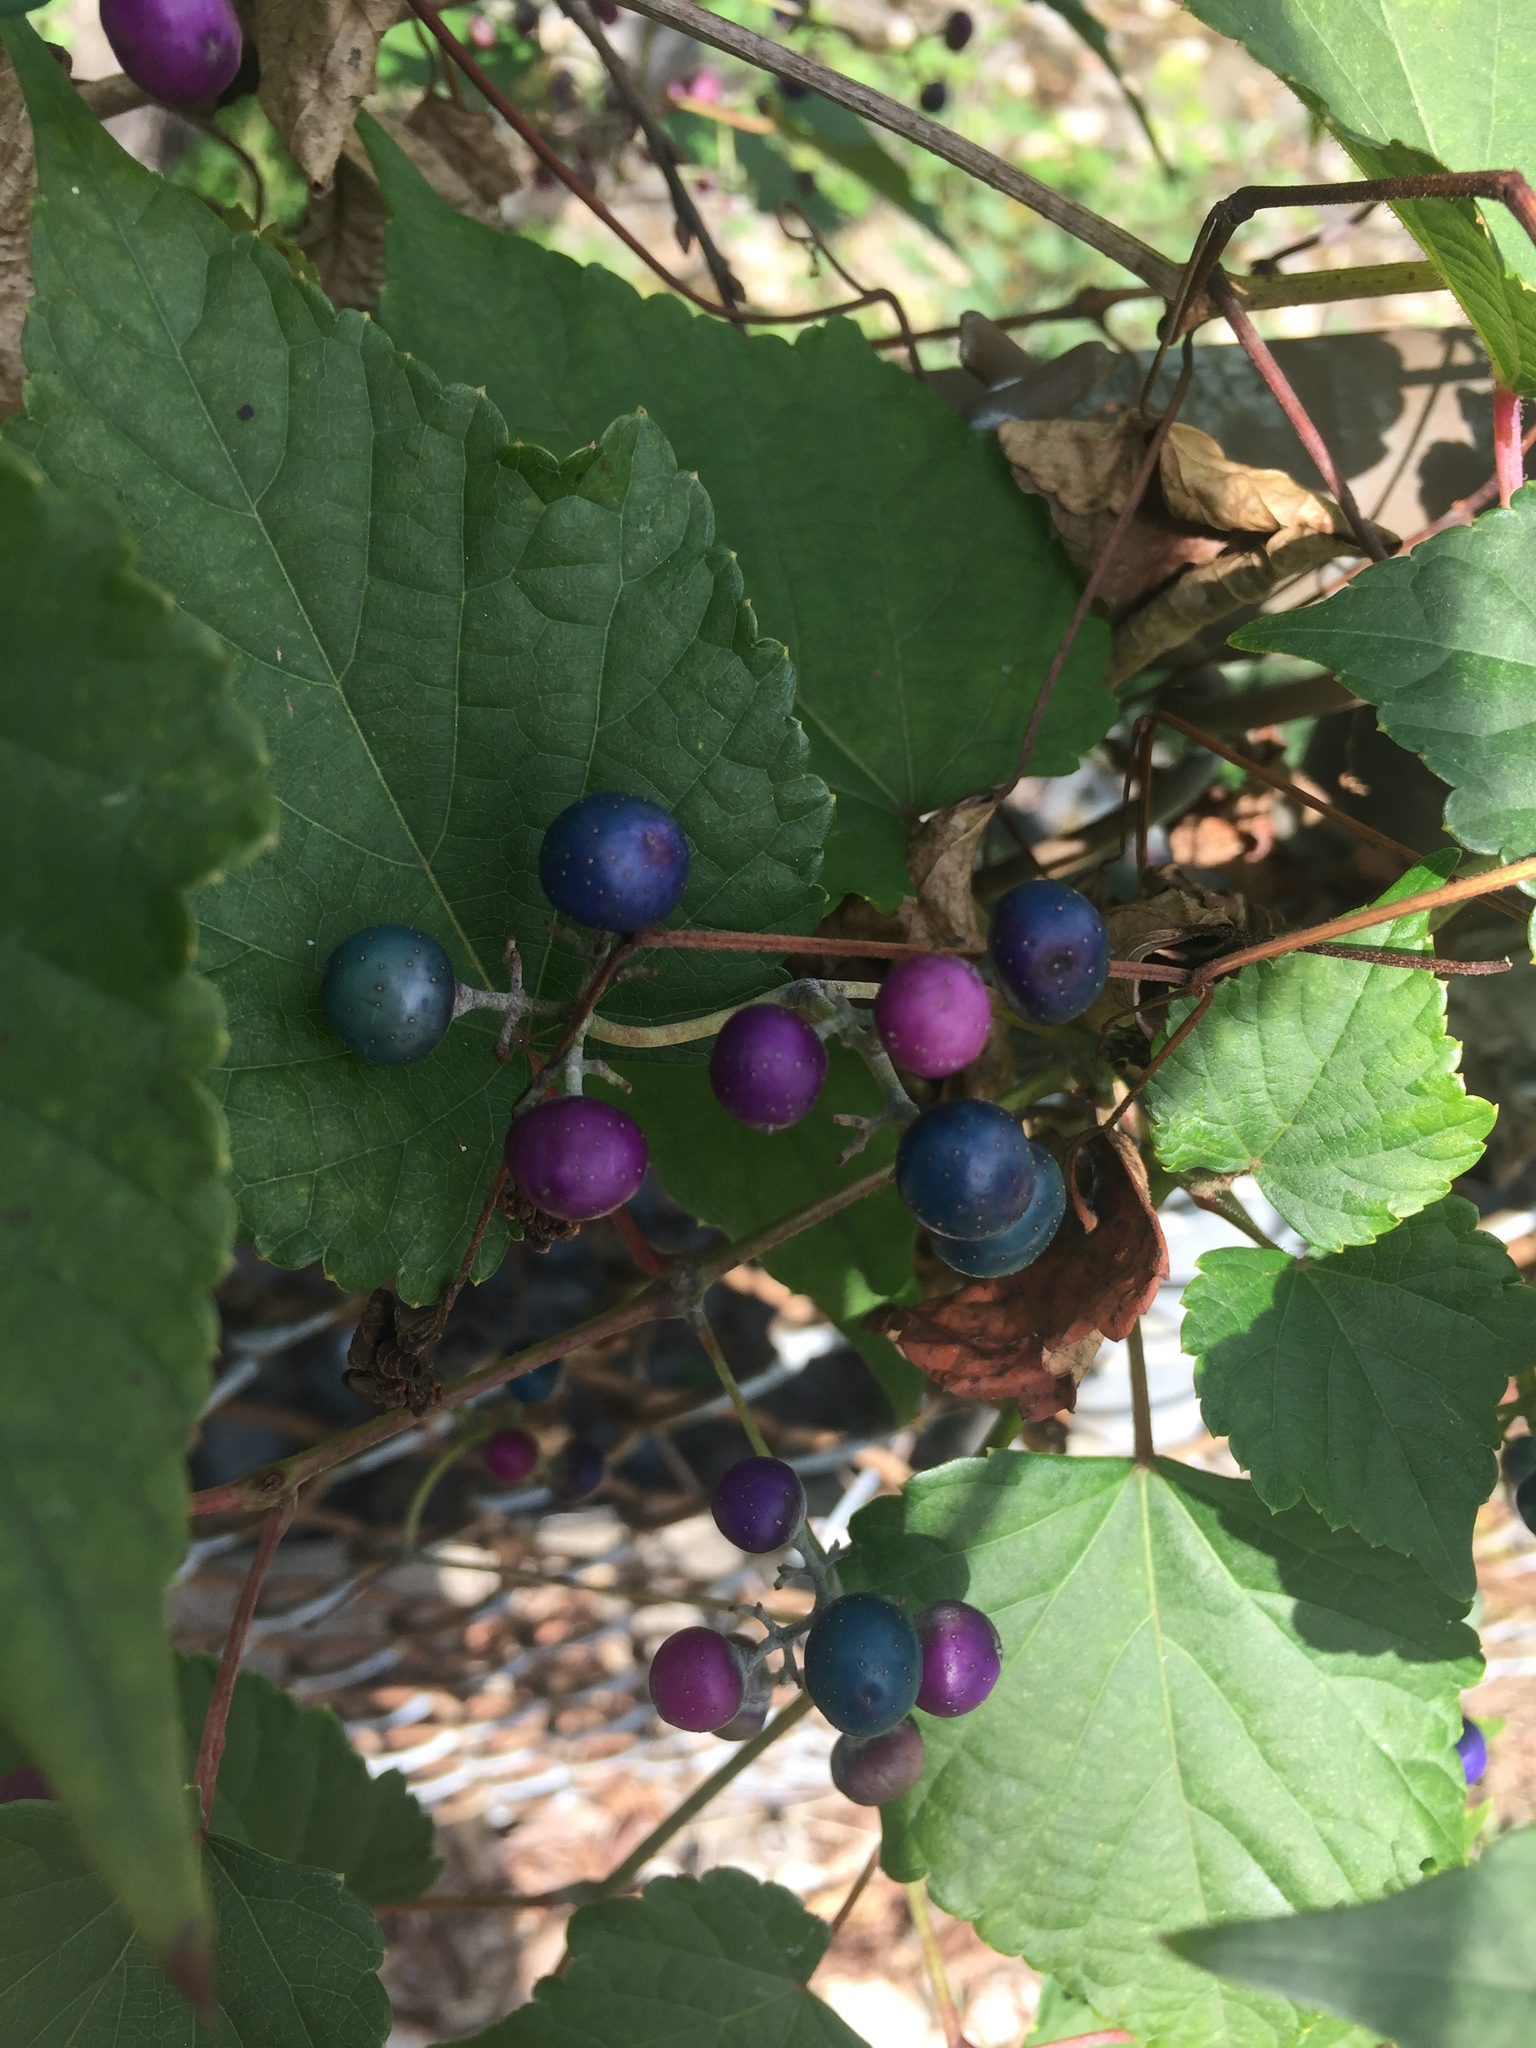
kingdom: Plantae
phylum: Tracheophyta
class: Magnoliopsida
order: Vitales
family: Vitaceae
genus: Ampelopsis
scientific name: Ampelopsis glandulosa
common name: Amur peppervine
